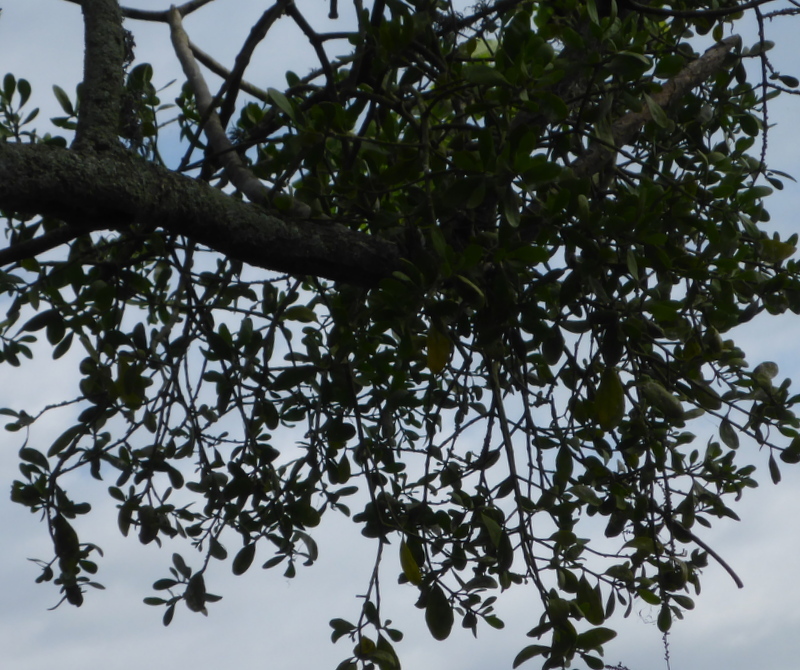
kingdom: Plantae
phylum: Tracheophyta
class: Magnoliopsida
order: Santalales
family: Viscaceae
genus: Phoradendron
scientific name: Phoradendron leucarpum
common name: Pacific mistletoe
